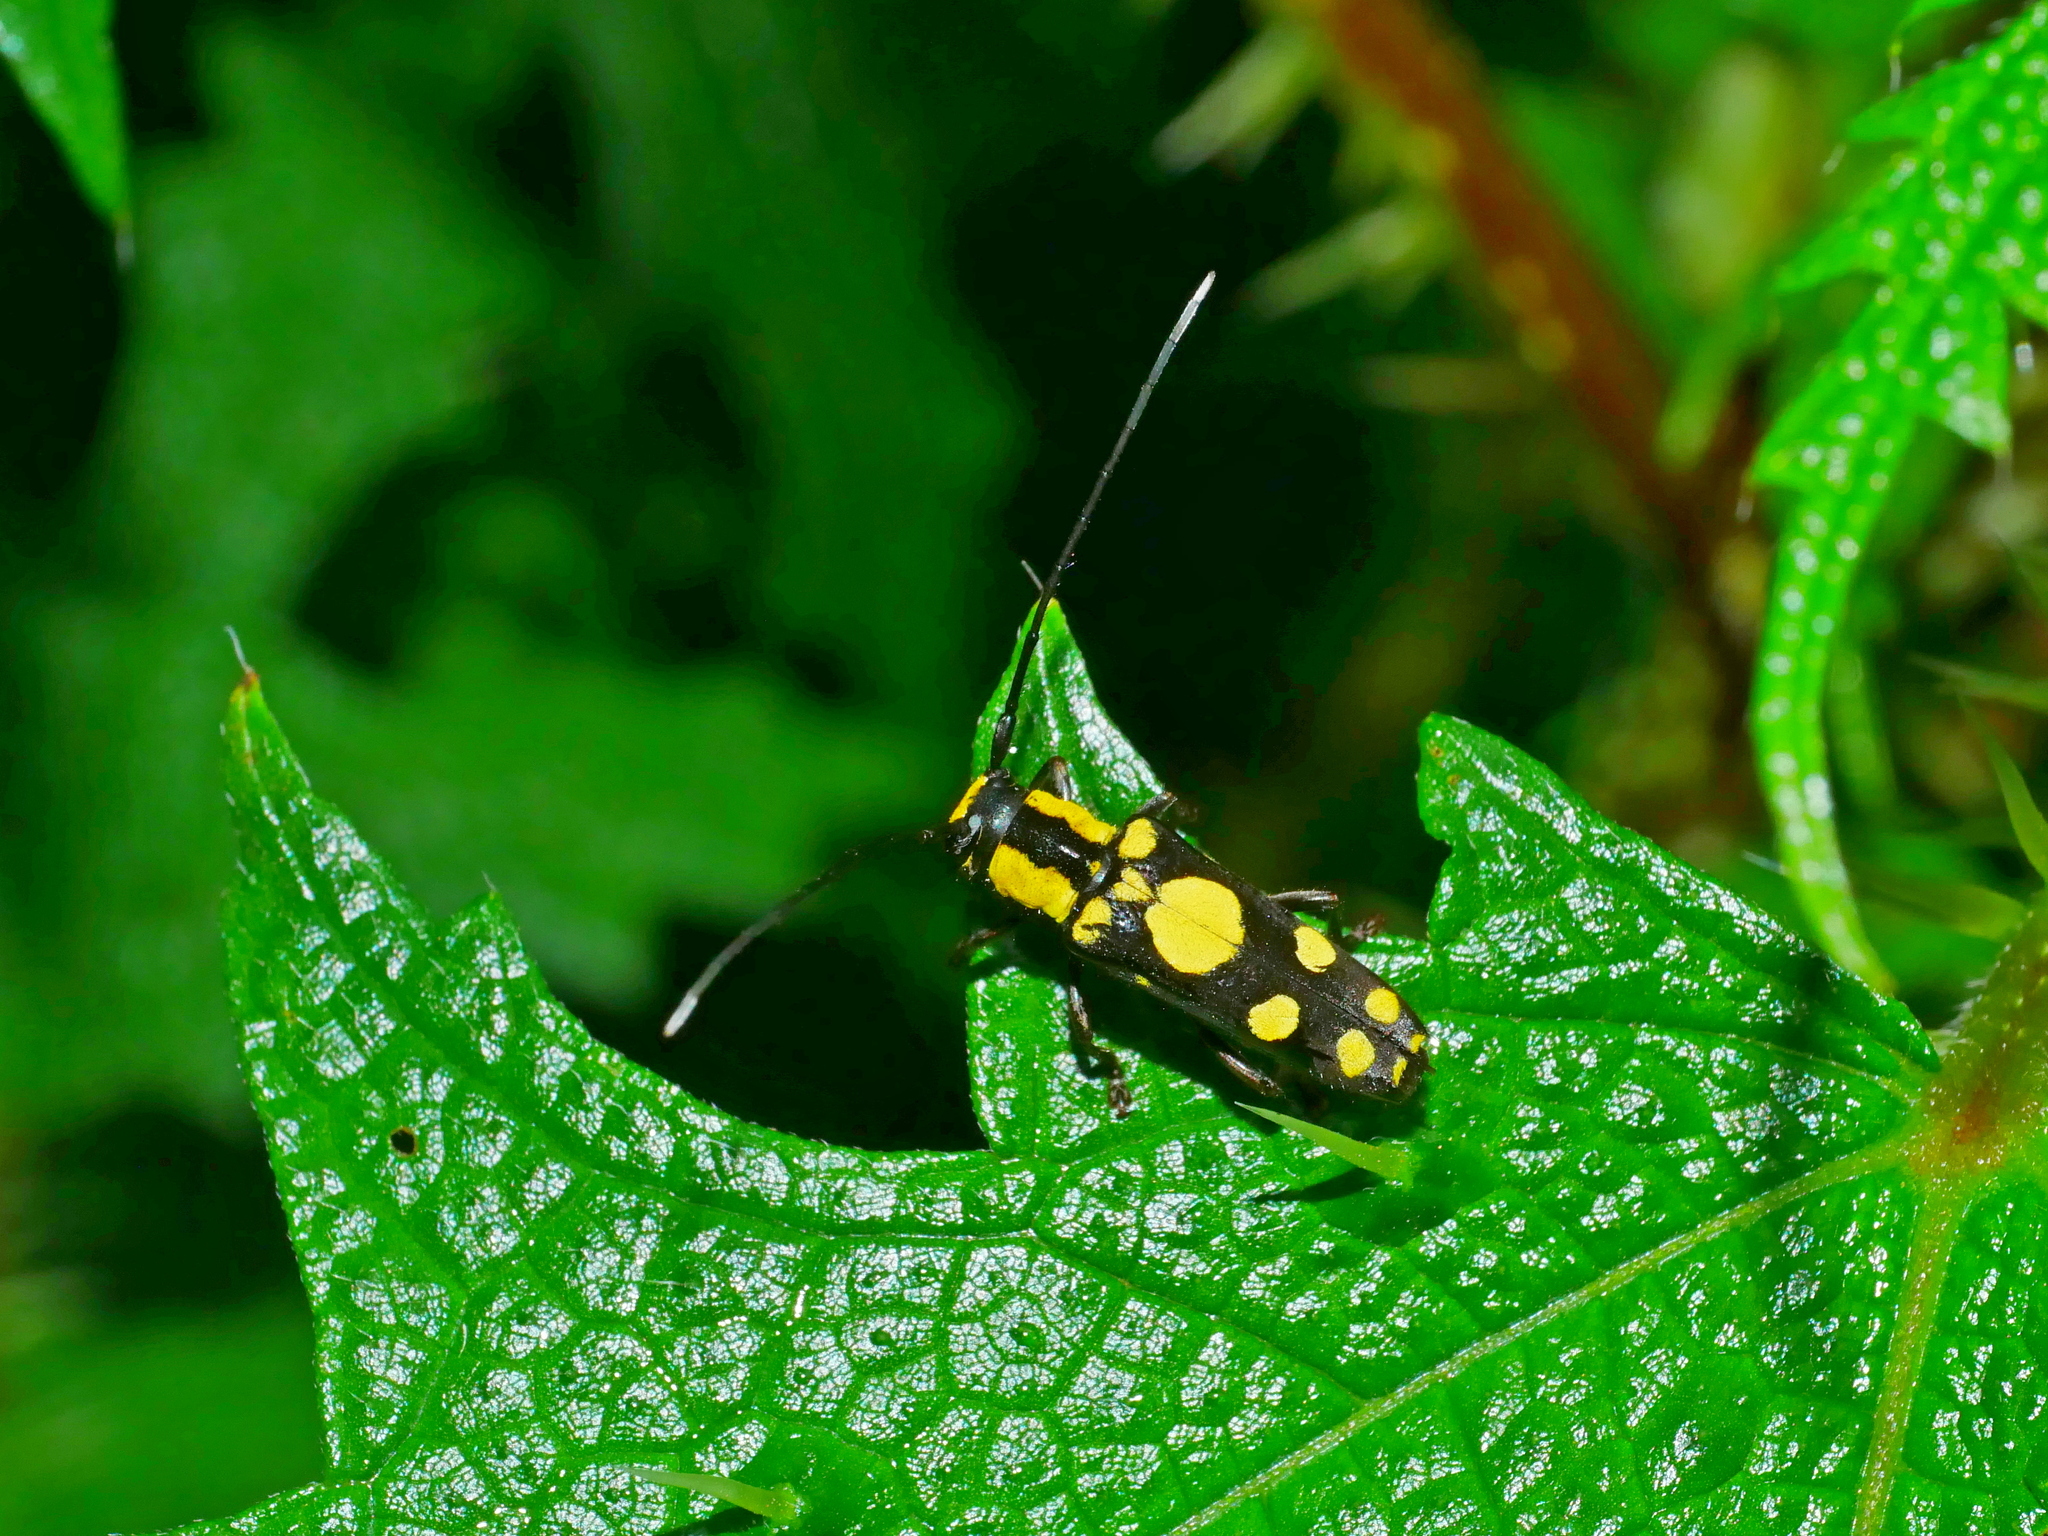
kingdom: Animalia
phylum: Arthropoda
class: Insecta
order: Coleoptera
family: Cerambycidae
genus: Glenea
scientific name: Glenea mitonoana
